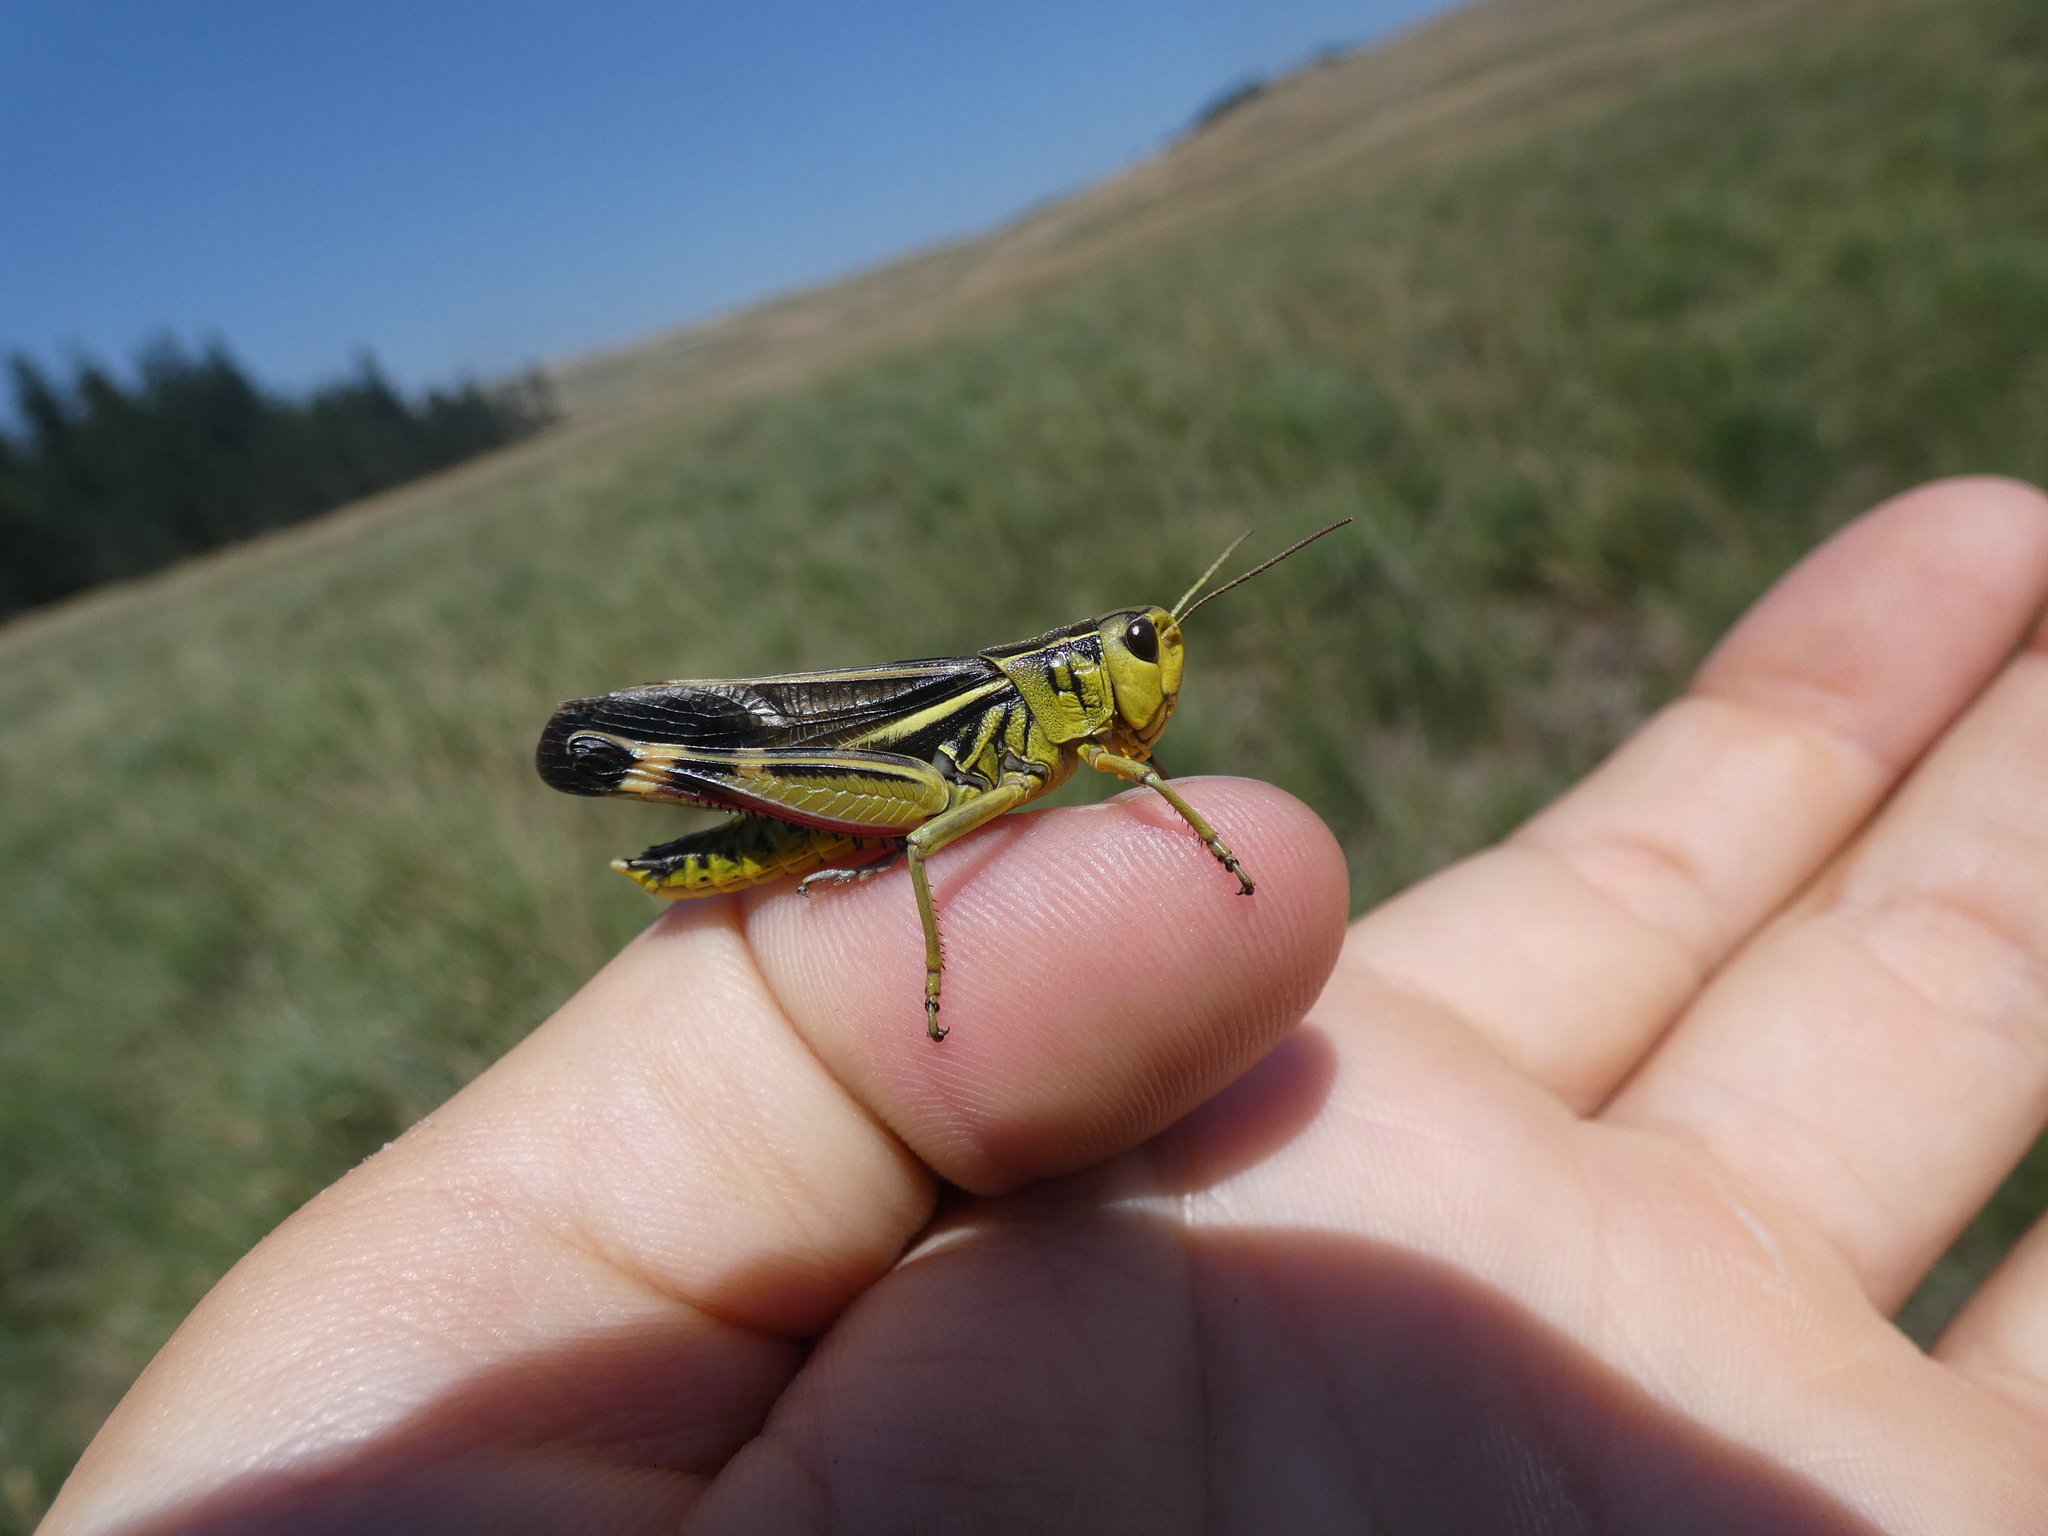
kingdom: Animalia
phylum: Arthropoda
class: Insecta
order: Orthoptera
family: Acrididae
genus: Arcyptera
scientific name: Arcyptera fusca
